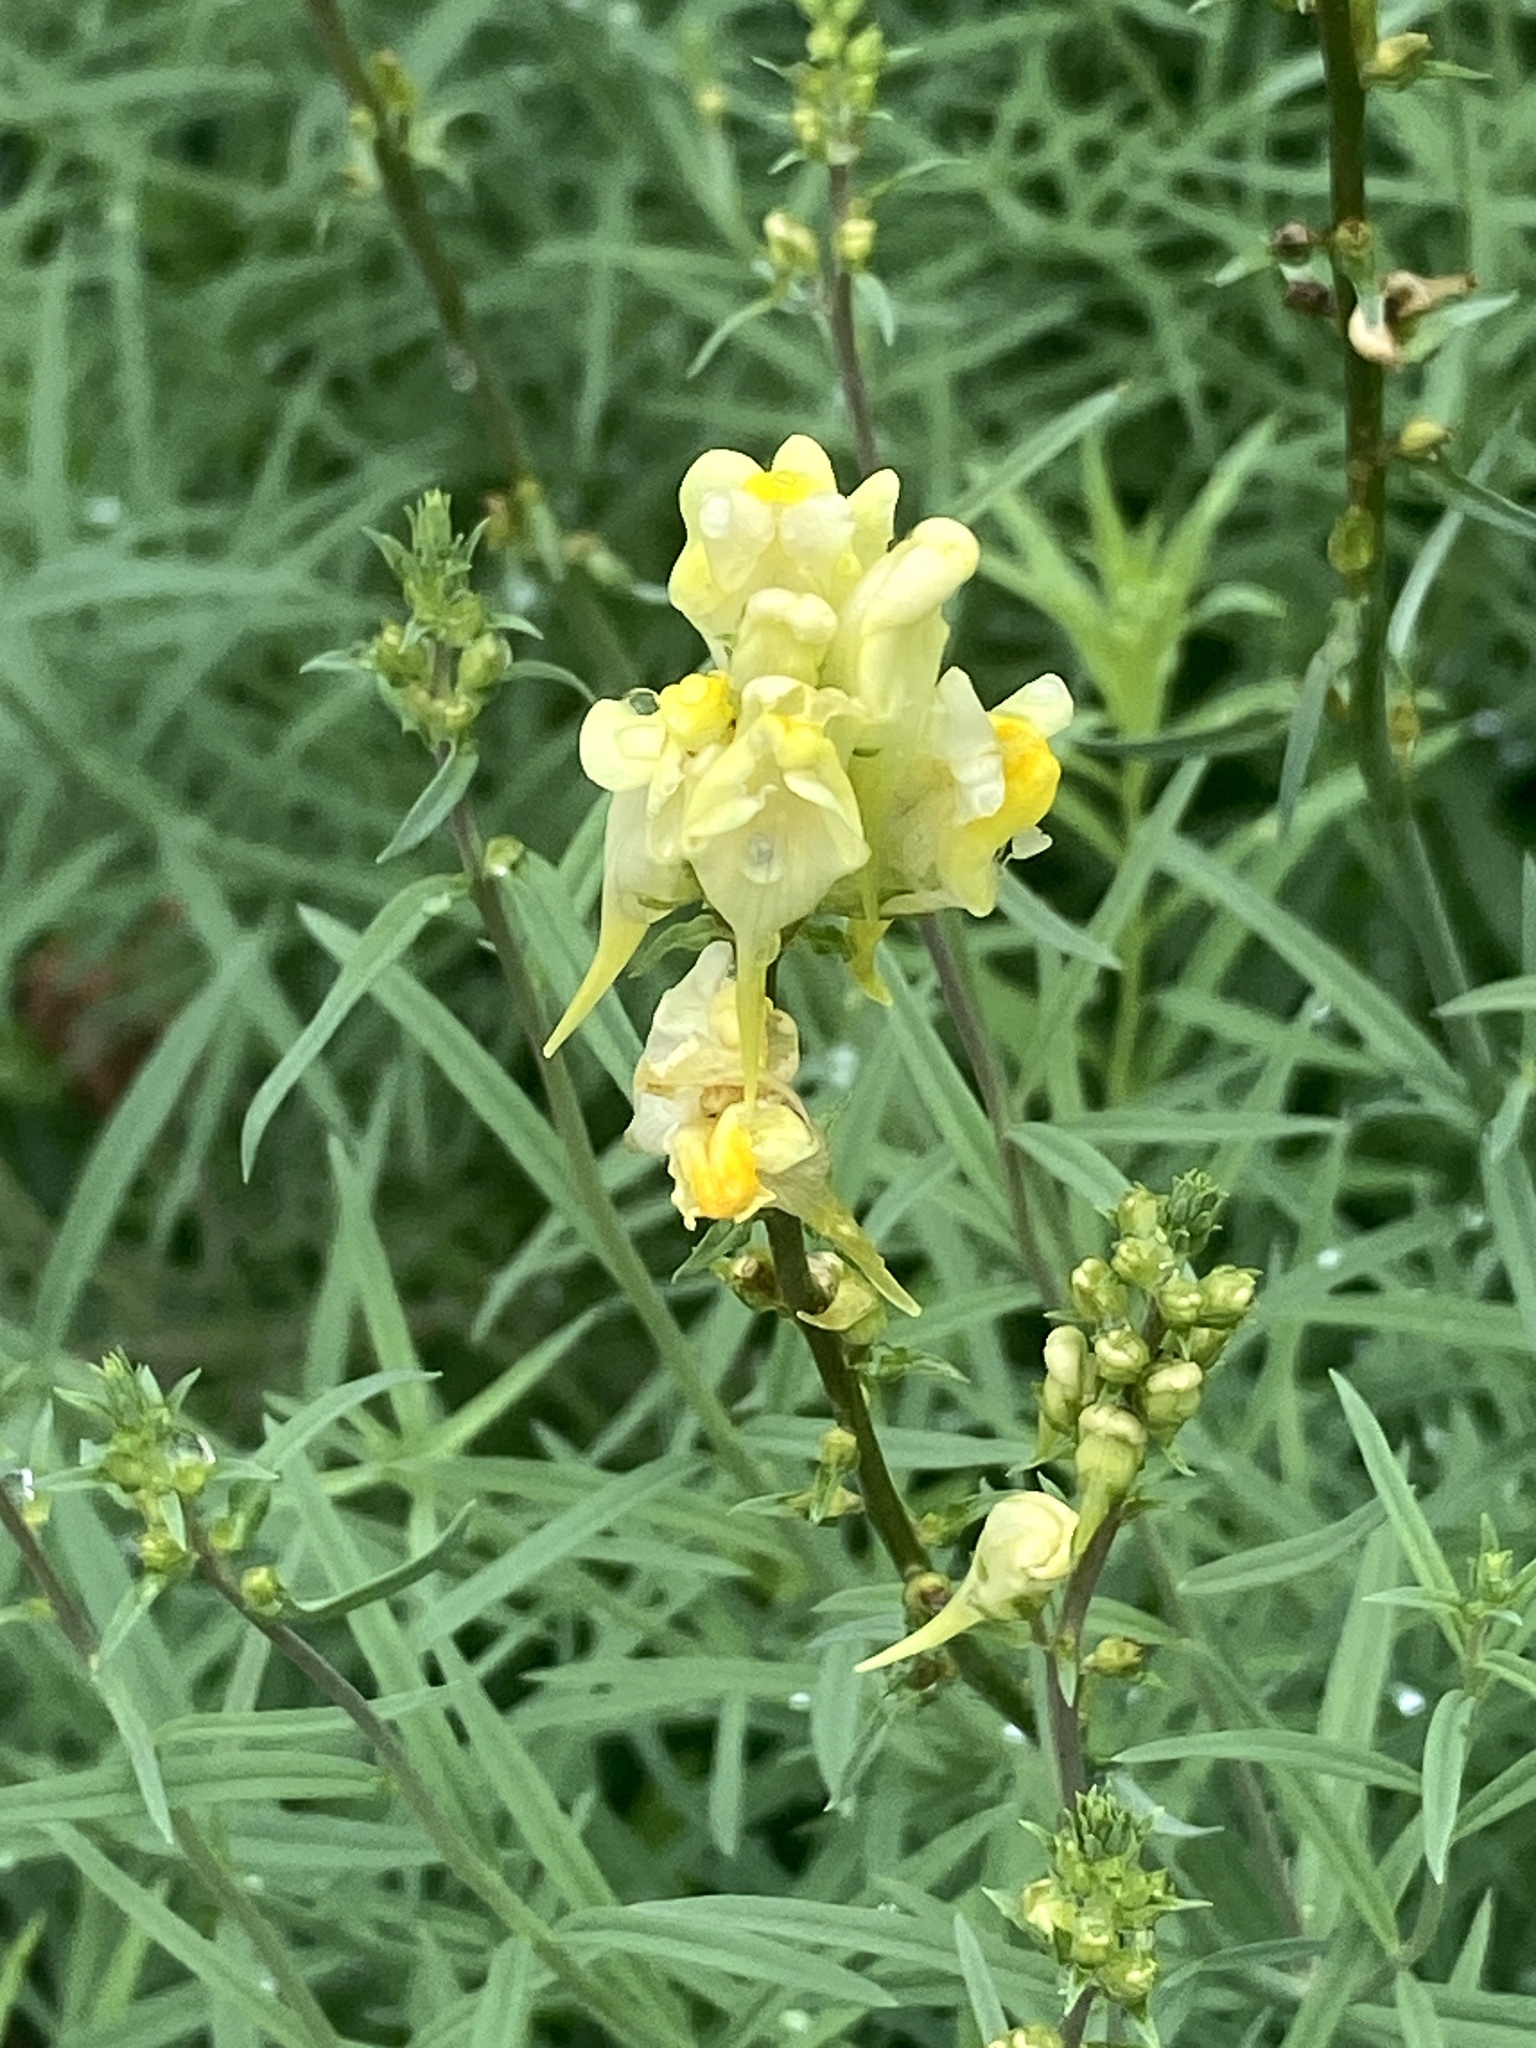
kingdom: Plantae
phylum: Tracheophyta
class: Magnoliopsida
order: Lamiales
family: Plantaginaceae
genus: Linaria
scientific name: Linaria vulgaris
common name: Butter and eggs
